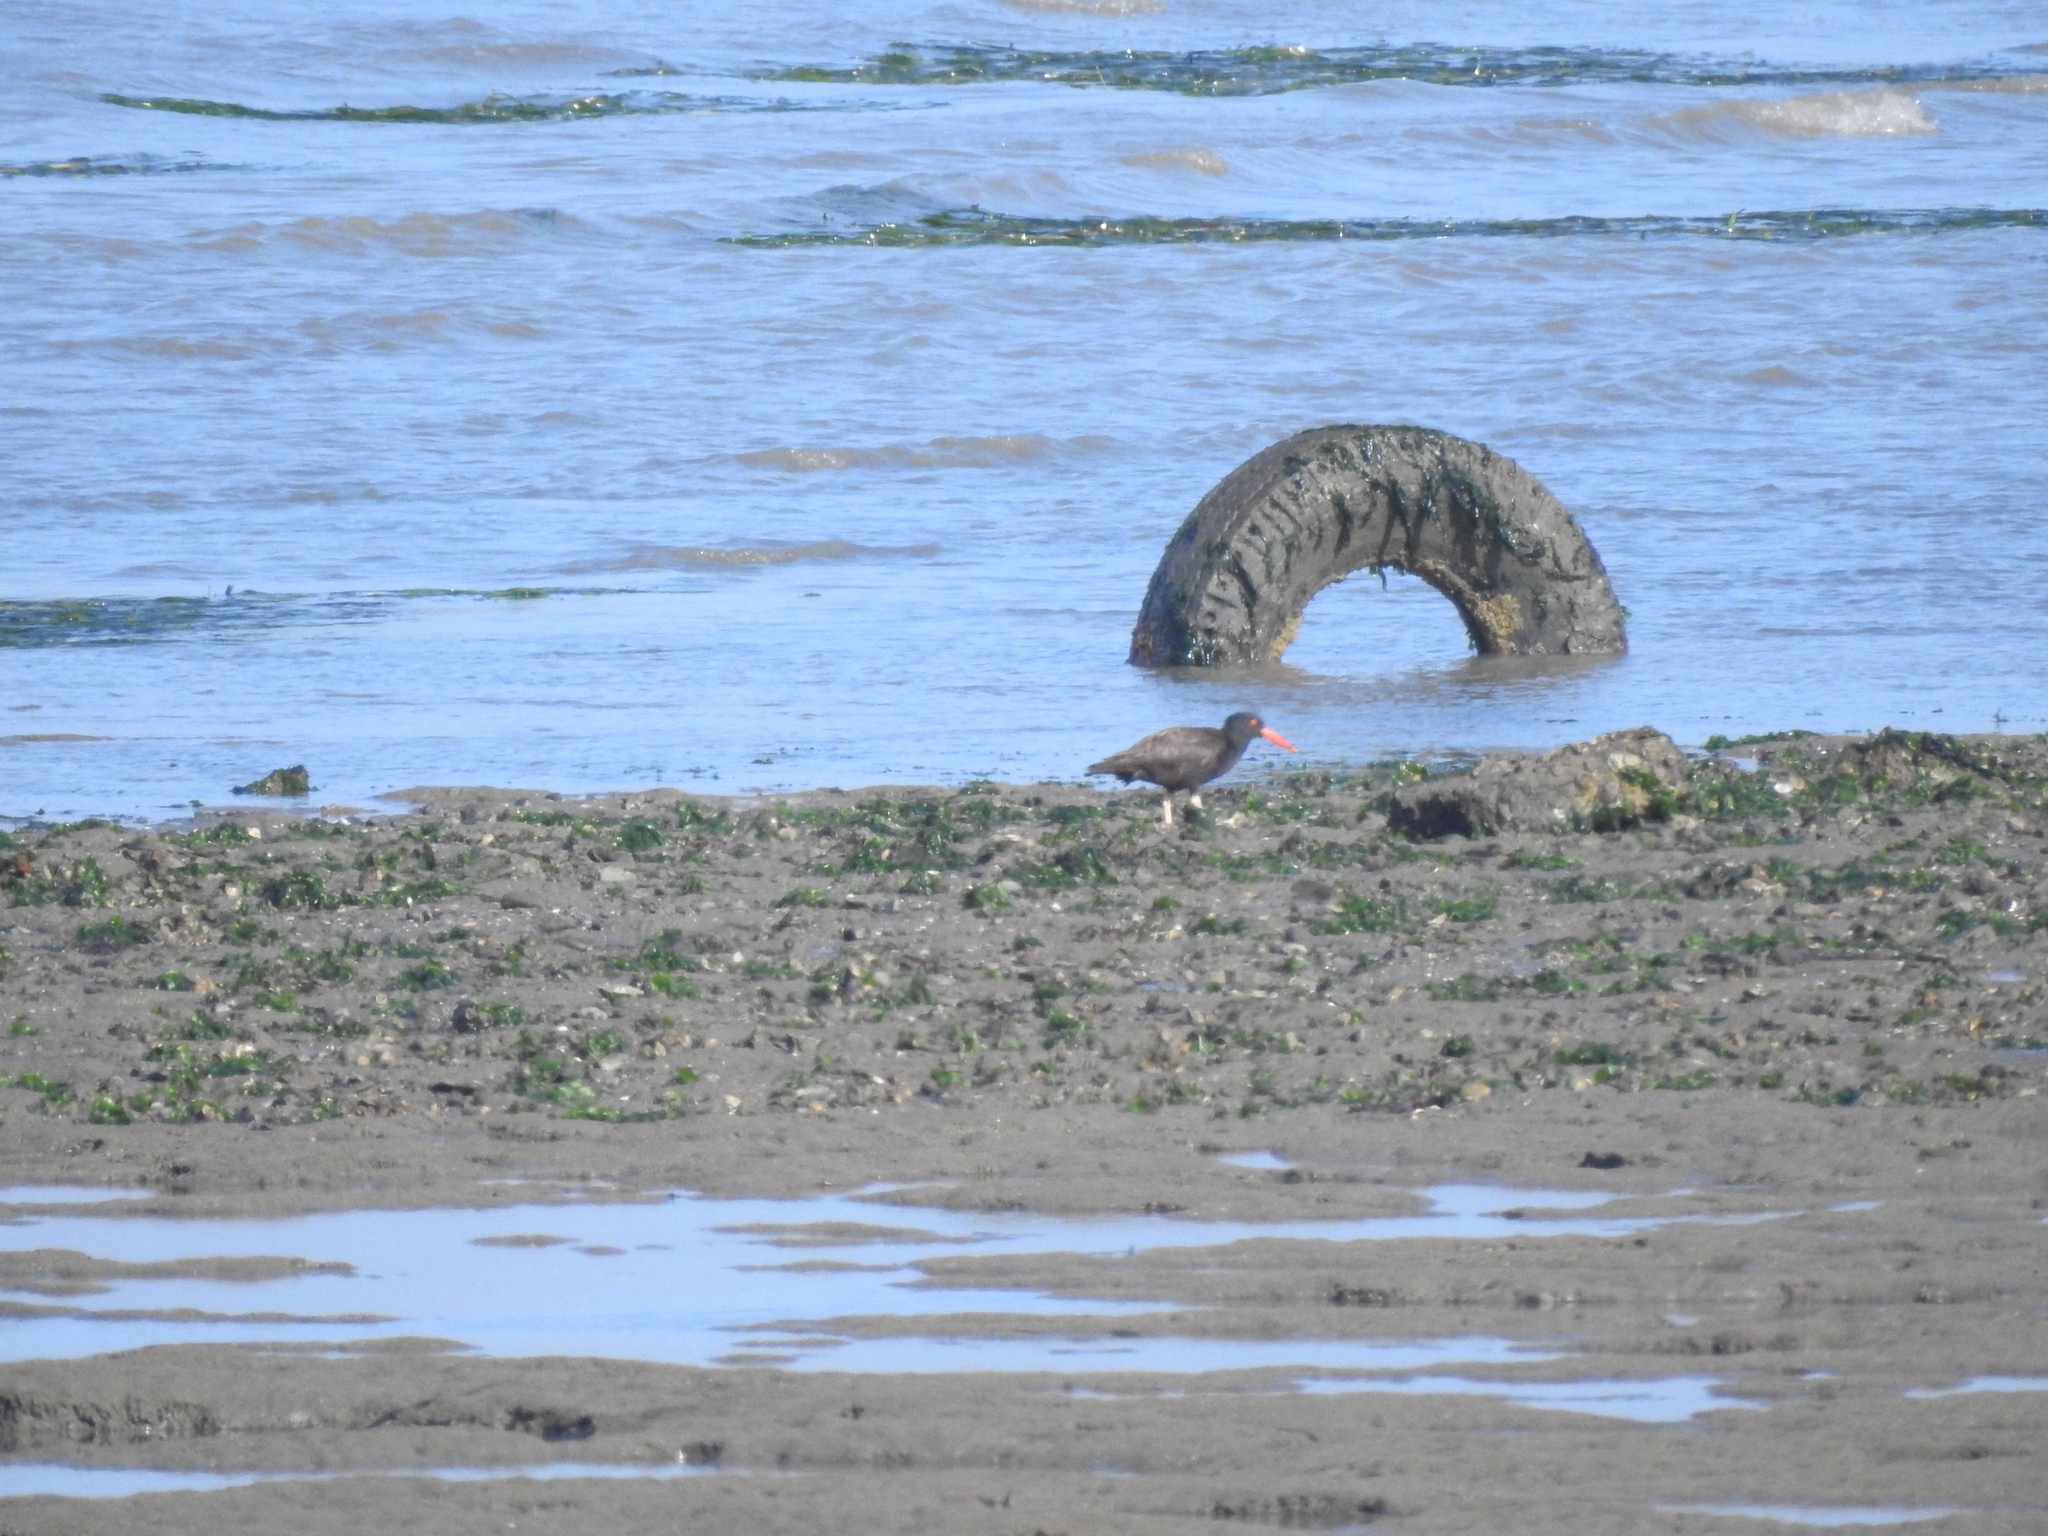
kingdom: Animalia
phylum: Chordata
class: Aves
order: Charadriiformes
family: Haematopodidae
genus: Haematopus
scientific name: Haematopus bachmani
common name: Black oystercatcher
